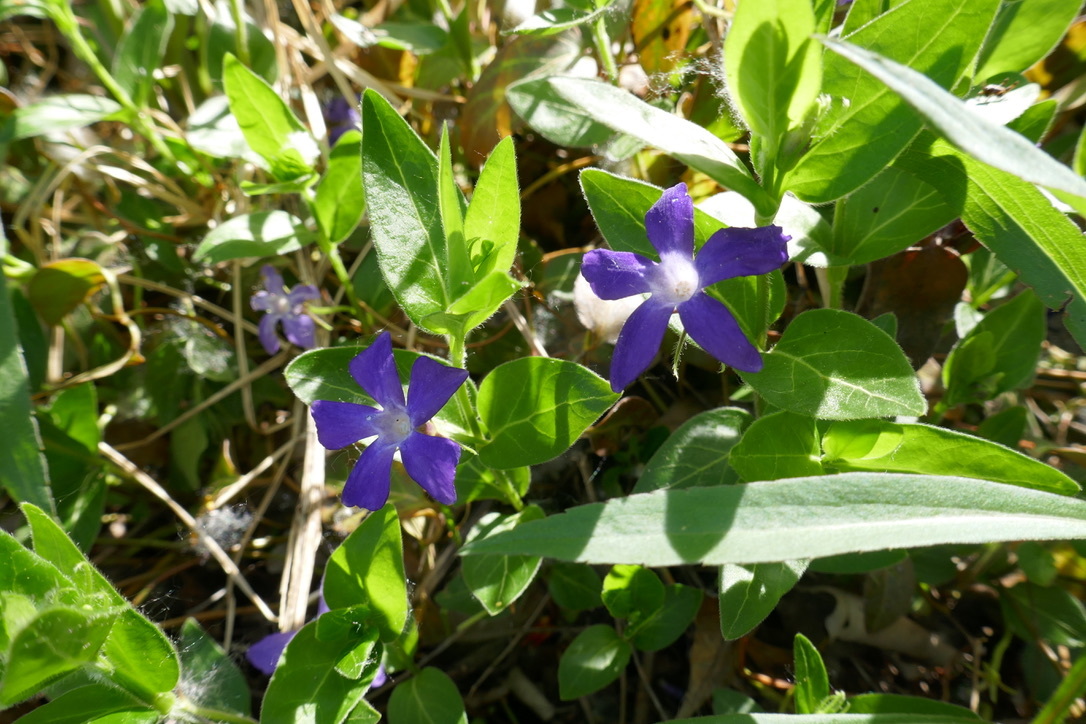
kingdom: Plantae
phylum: Tracheophyta
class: Magnoliopsida
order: Gentianales
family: Apocynaceae
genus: Vinca
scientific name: Vinca major
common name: Greater periwinkle
